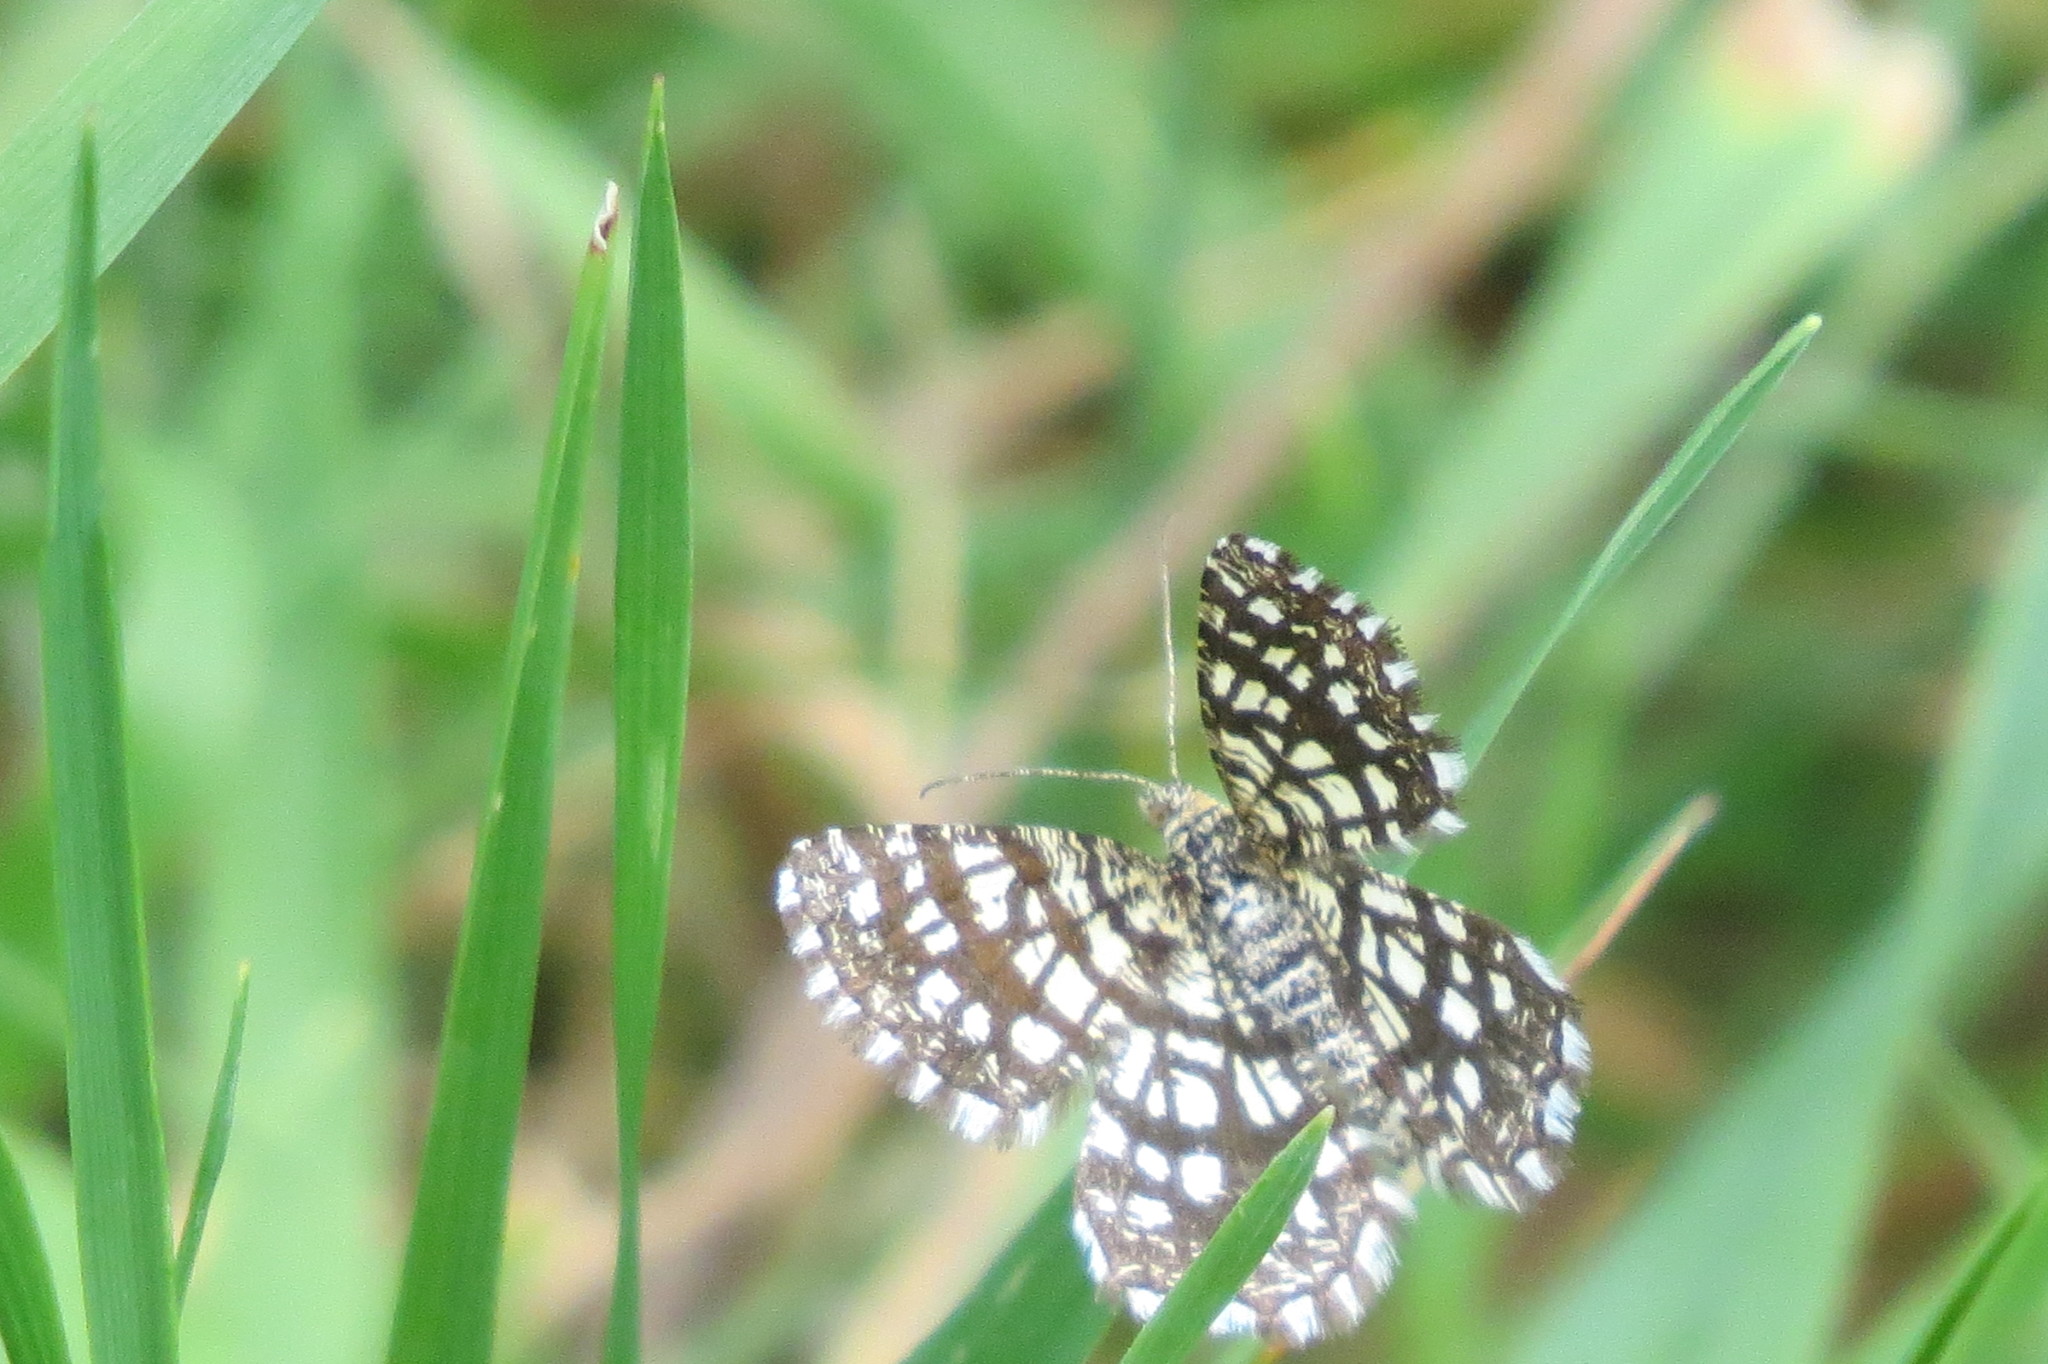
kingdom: Animalia
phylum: Arthropoda
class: Insecta
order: Lepidoptera
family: Geometridae
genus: Chiasmia
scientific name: Chiasmia clathrata
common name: Latticed heath
